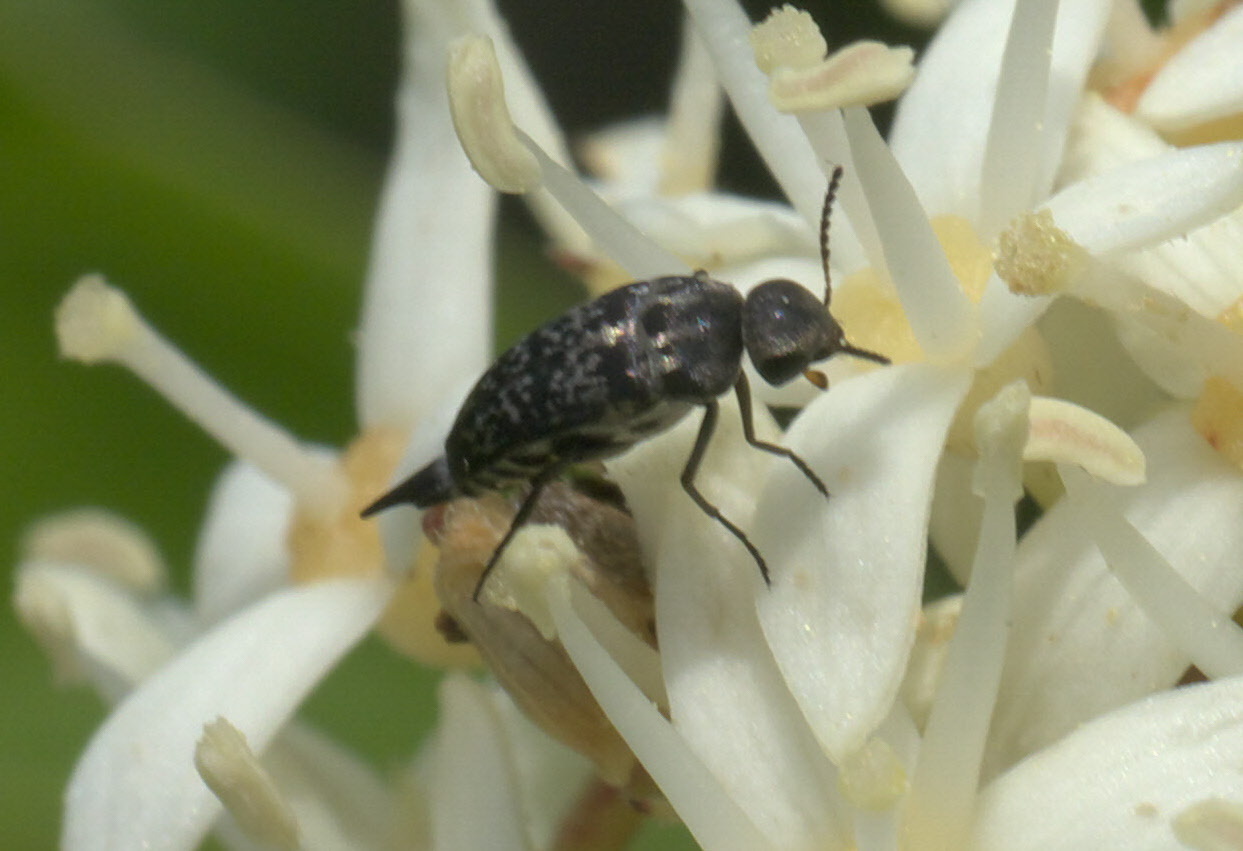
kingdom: Animalia
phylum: Arthropoda
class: Insecta
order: Coleoptera
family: Mordellidae
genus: Mordella
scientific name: Mordella marginata
